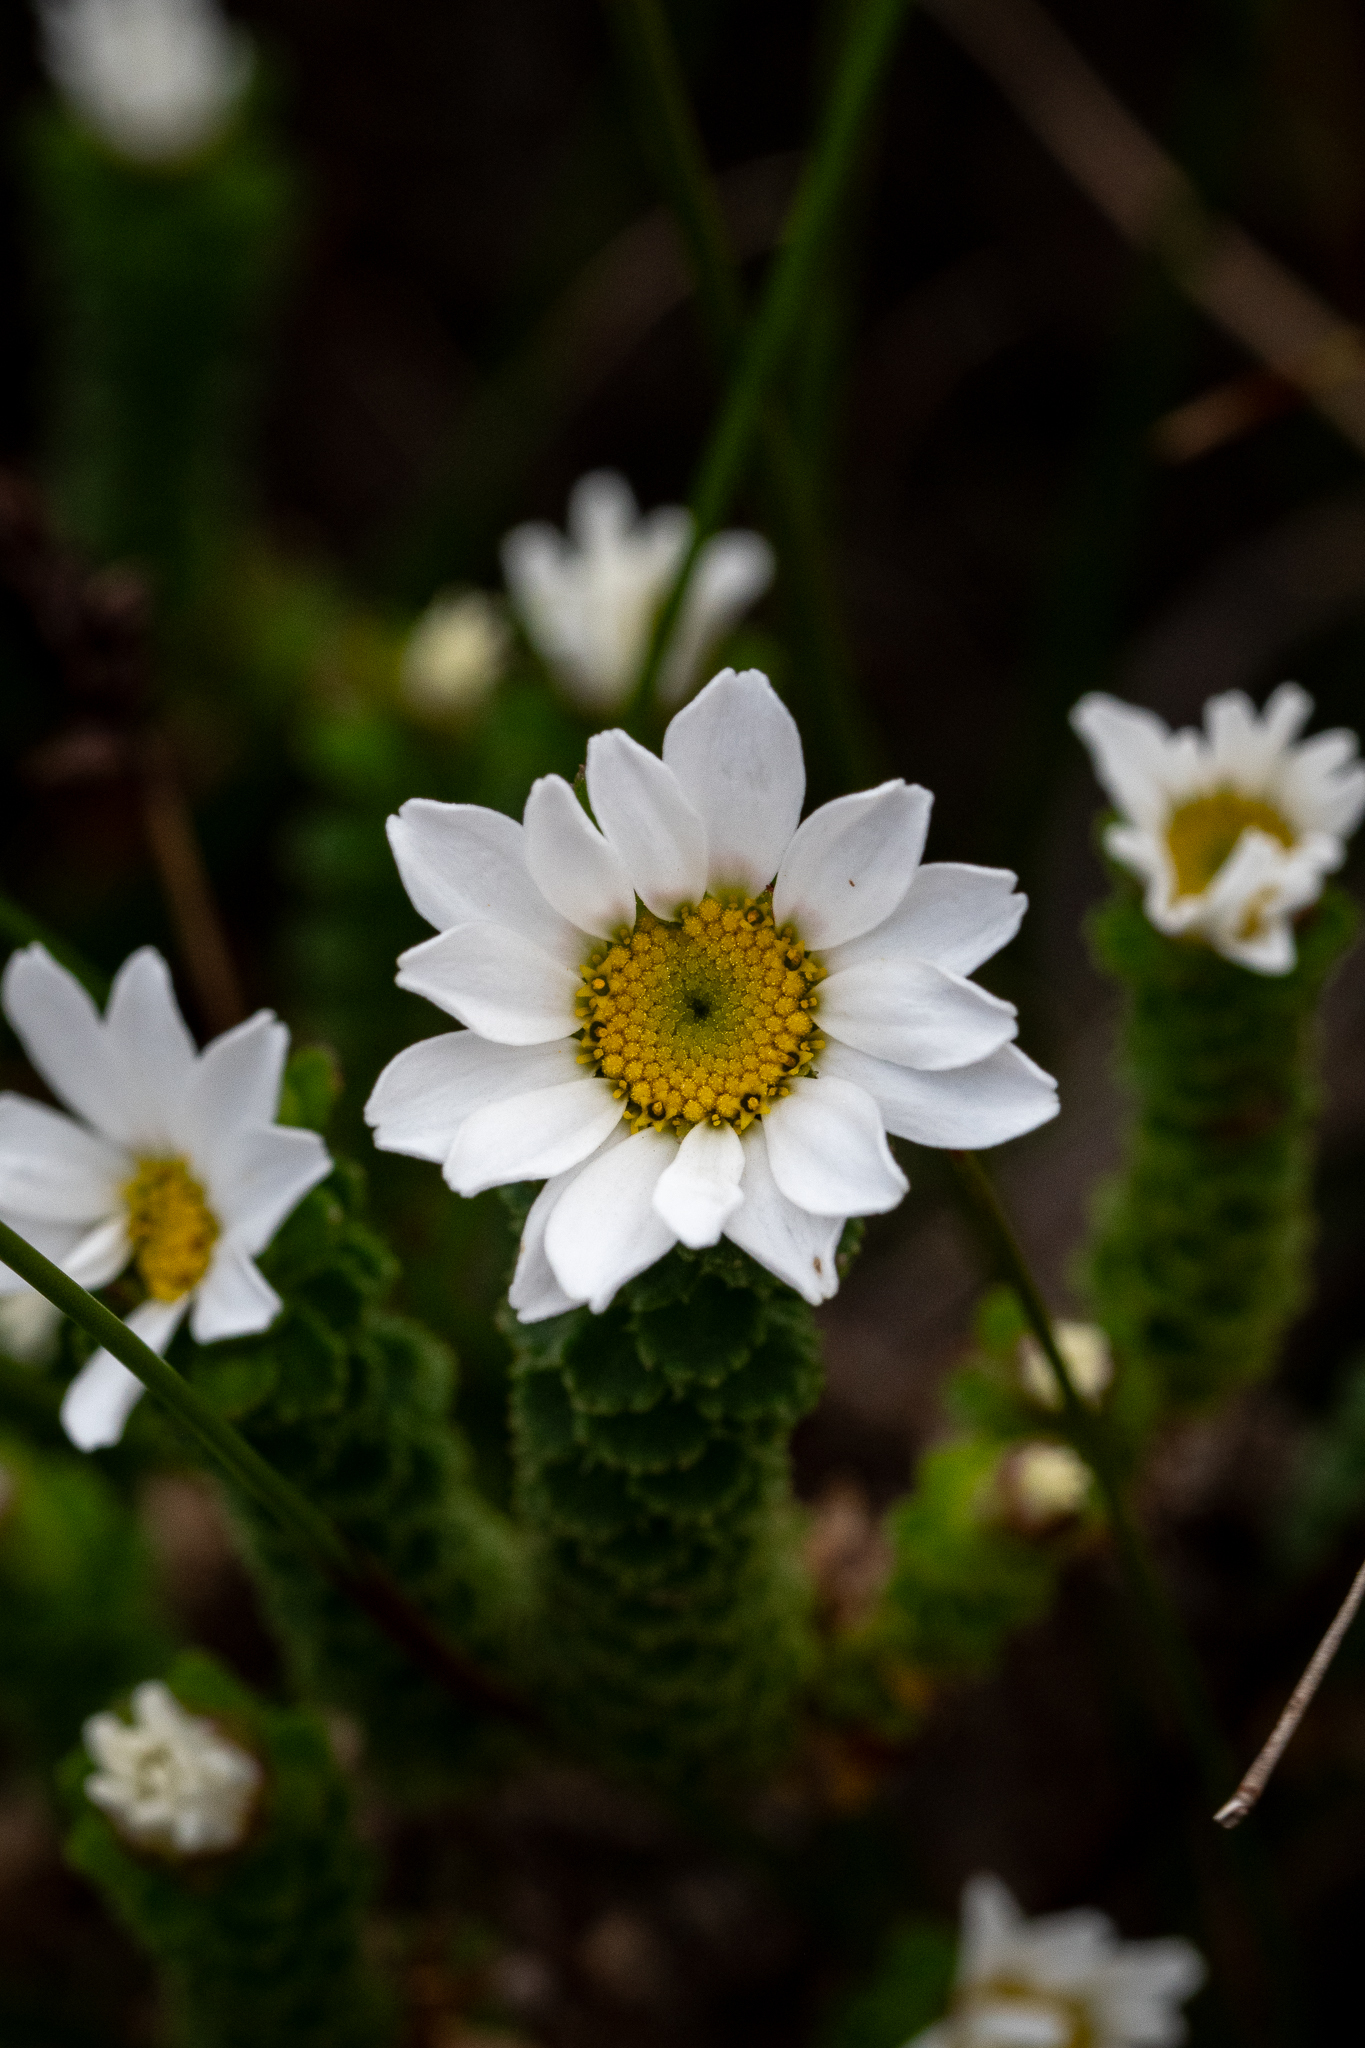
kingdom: Plantae
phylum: Tracheophyta
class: Magnoliopsida
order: Asterales
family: Asteraceae
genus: Osmitopsis
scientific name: Osmitopsis parvifolia
